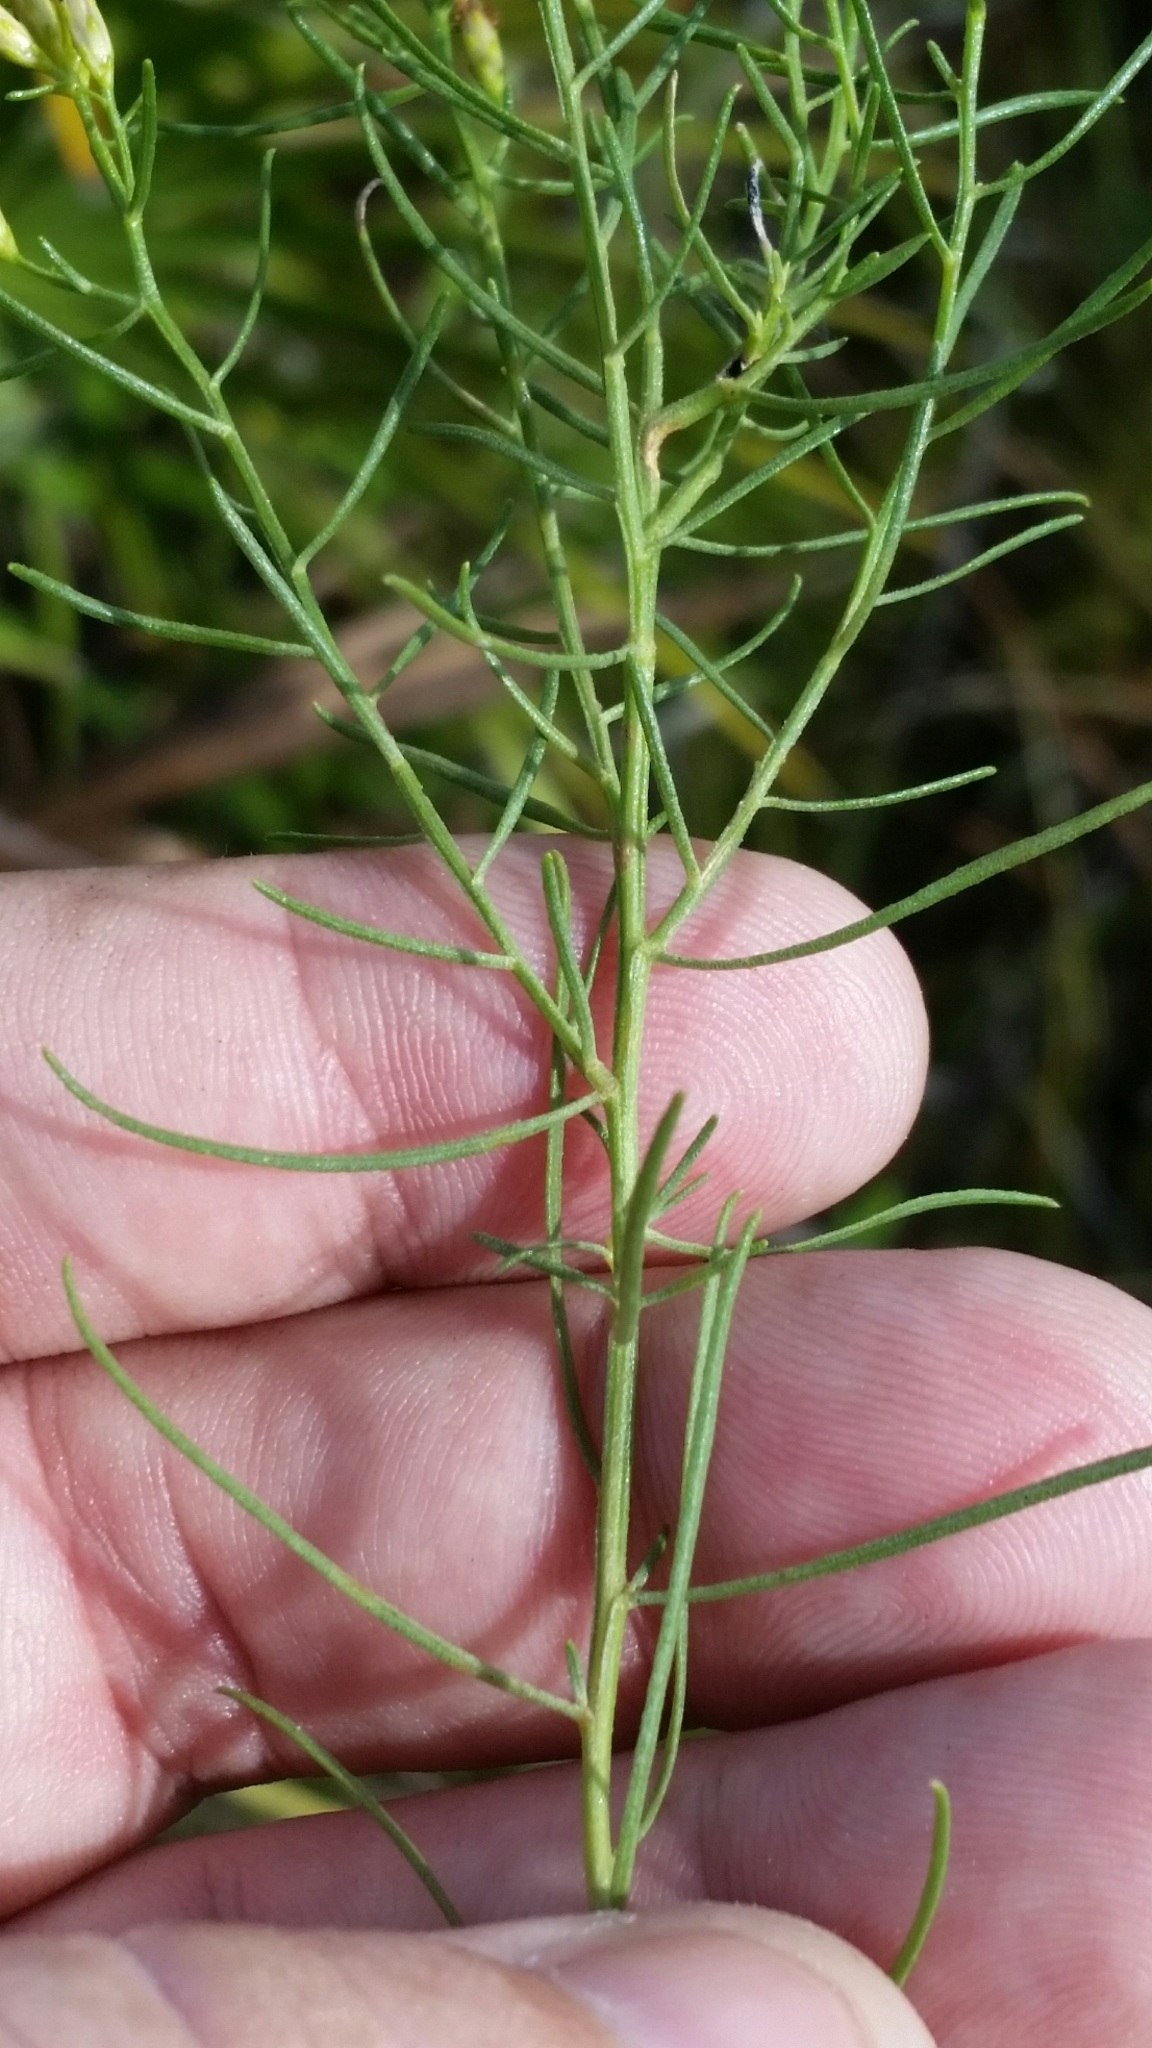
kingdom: Plantae
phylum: Tracheophyta
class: Magnoliopsida
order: Asterales
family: Asteraceae
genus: Euthamia
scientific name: Euthamia caroliniana
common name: Coastal plain goldentop
